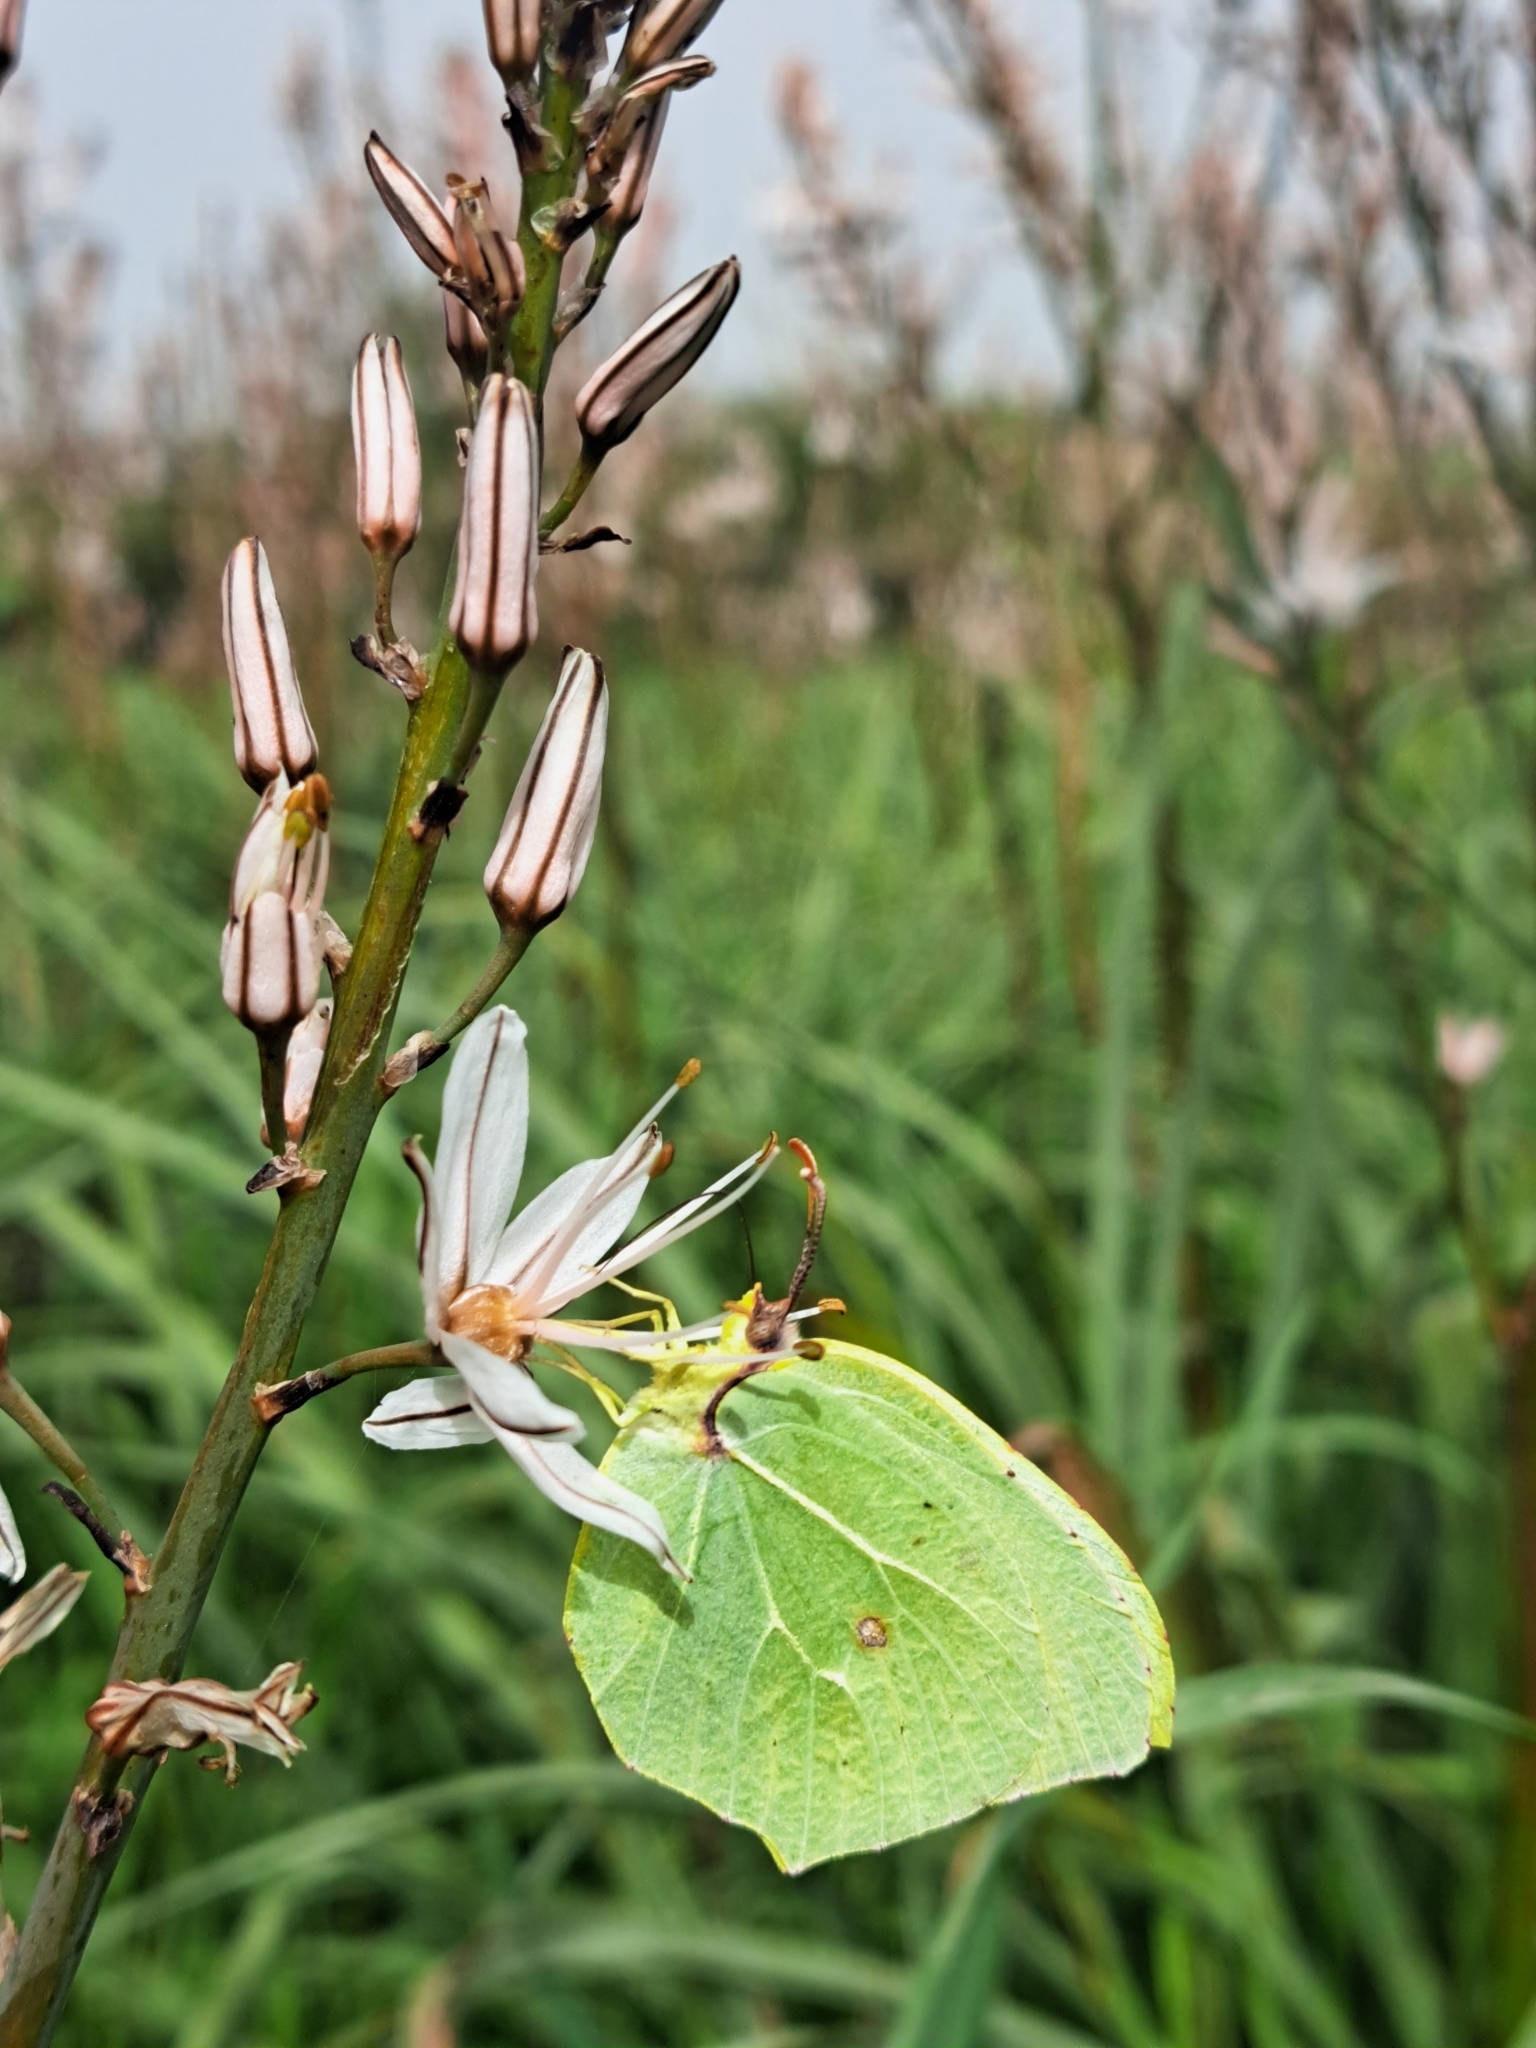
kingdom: Animalia
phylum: Arthropoda
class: Insecta
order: Lepidoptera
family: Pieridae
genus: Gonepteryx
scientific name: Gonepteryx cleopatra
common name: Cleopatra
